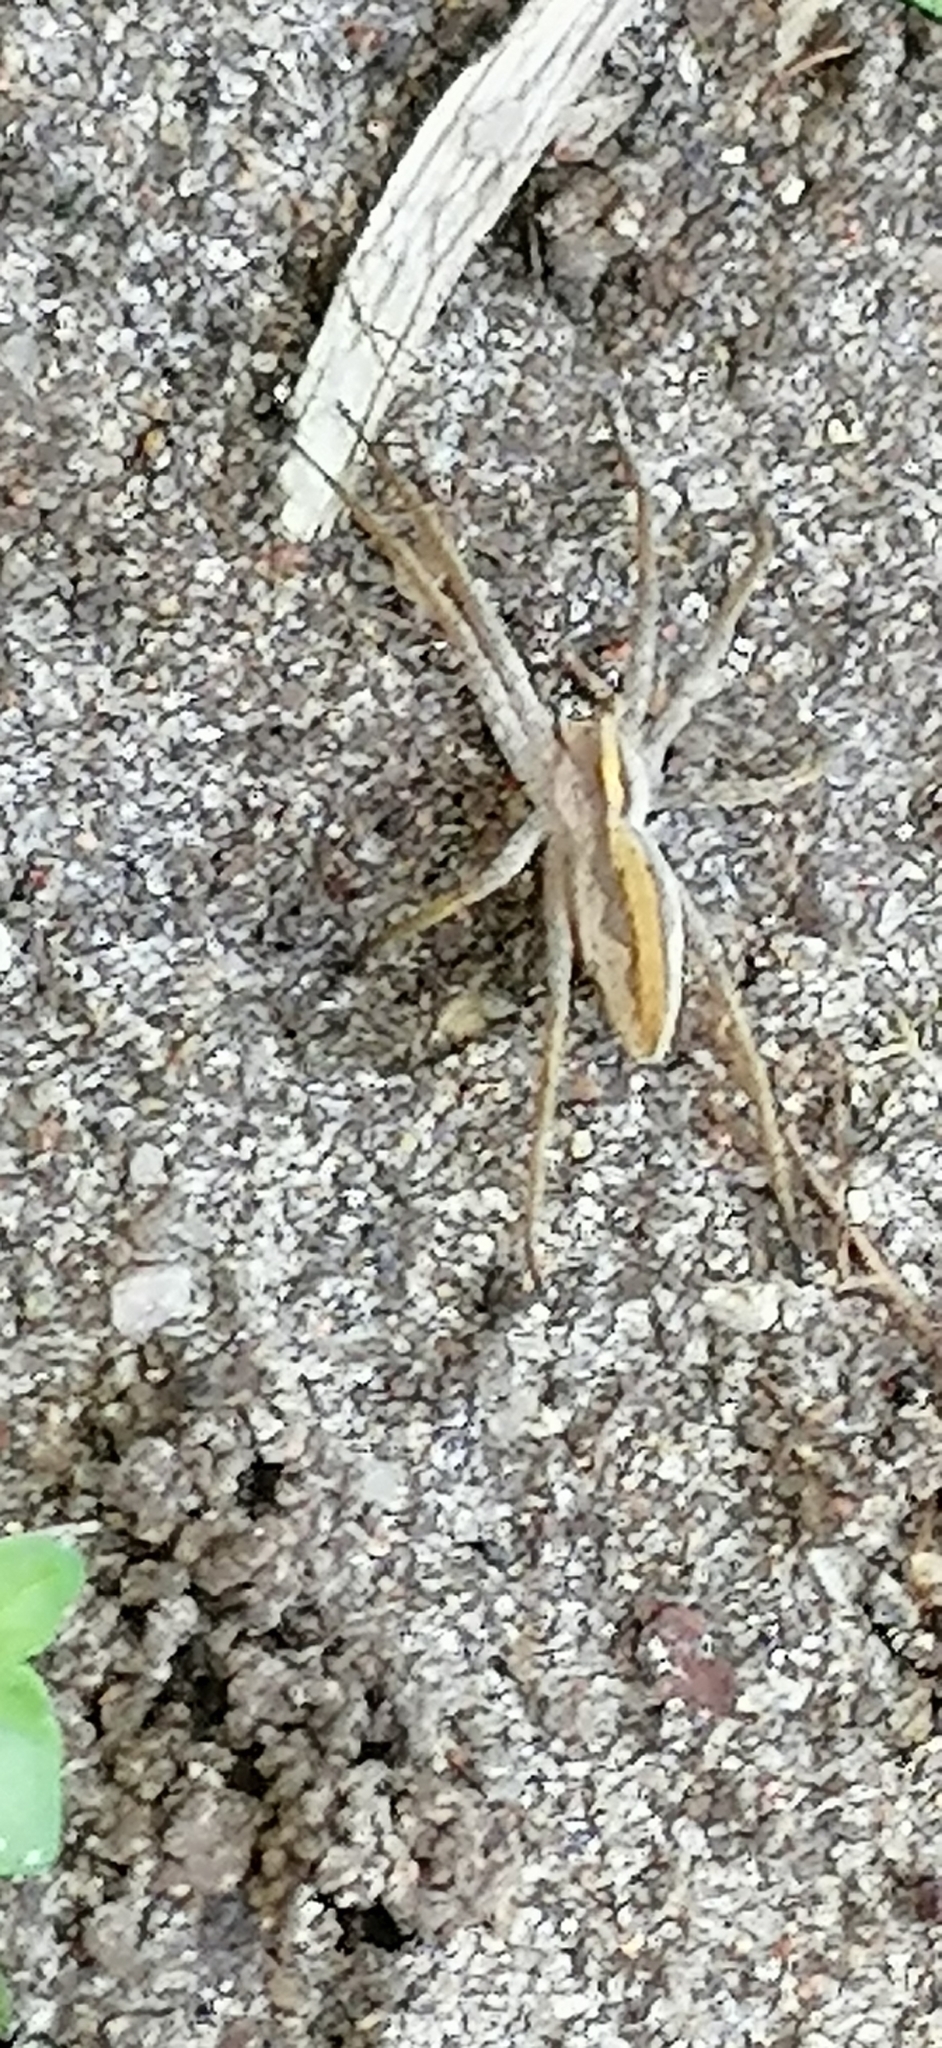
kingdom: Animalia
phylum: Arthropoda
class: Arachnida
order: Araneae
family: Pisauridae
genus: Pisaura
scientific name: Pisaura mirabilis
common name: Tent spider
